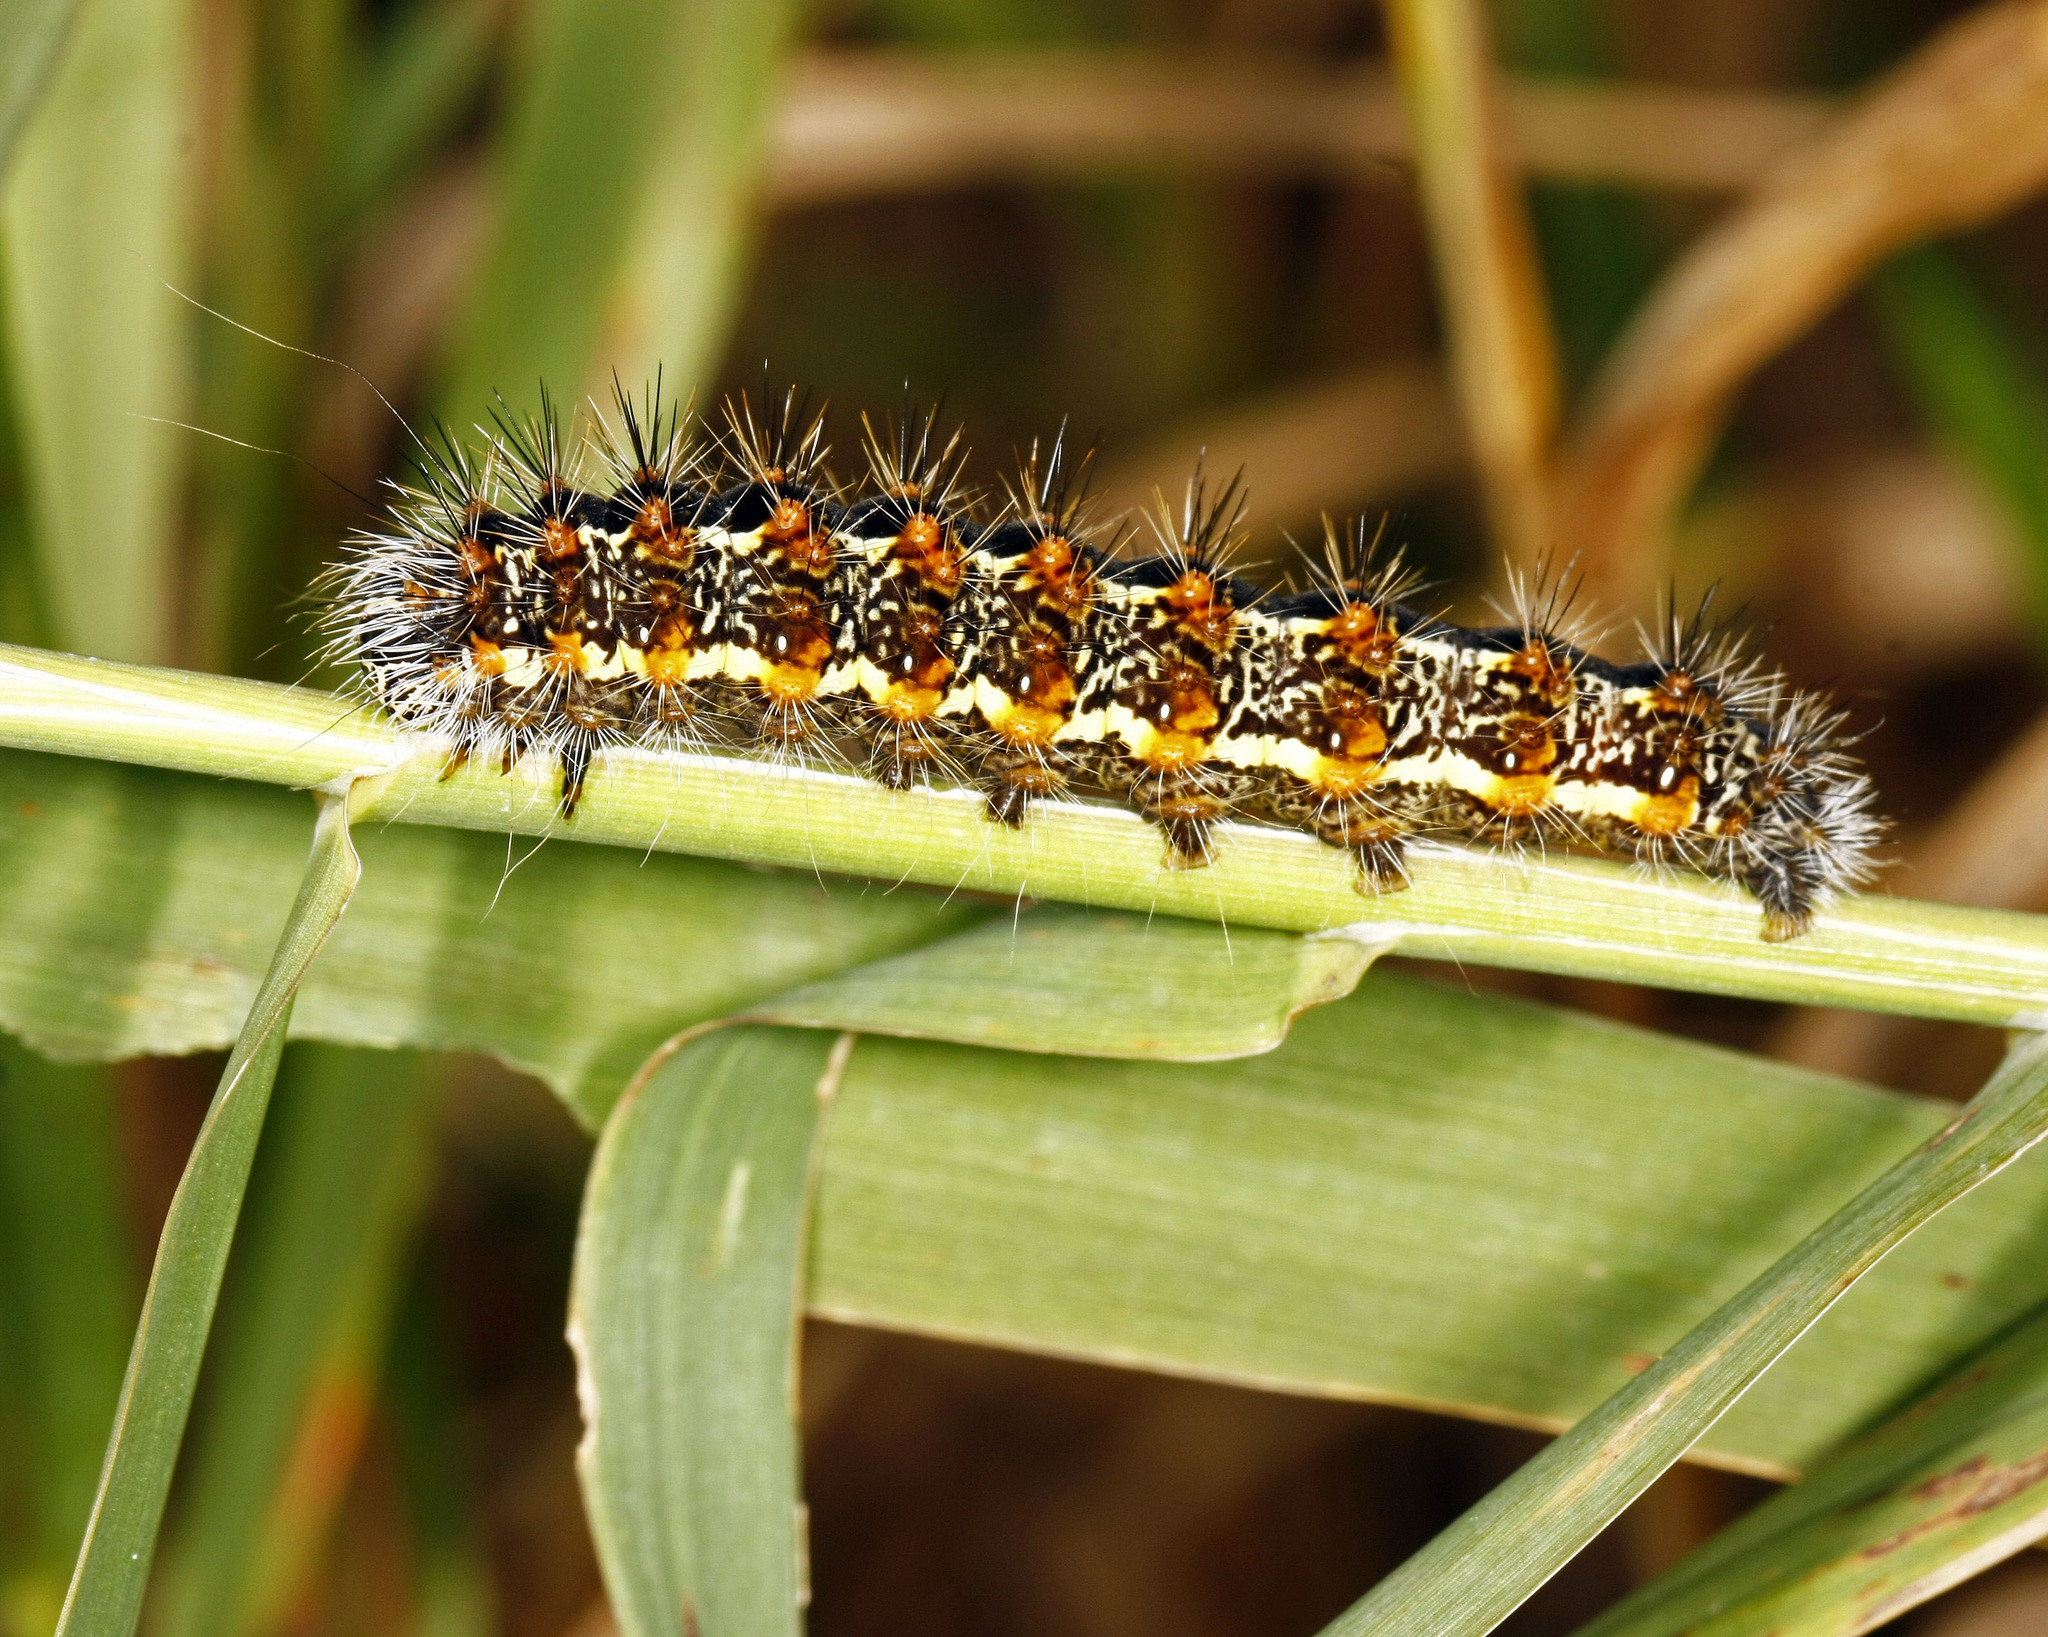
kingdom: Animalia
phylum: Arthropoda
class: Insecta
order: Lepidoptera
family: Noctuidae
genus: Acronicta
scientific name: Acronicta insularis
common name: Henry's marsh moth
